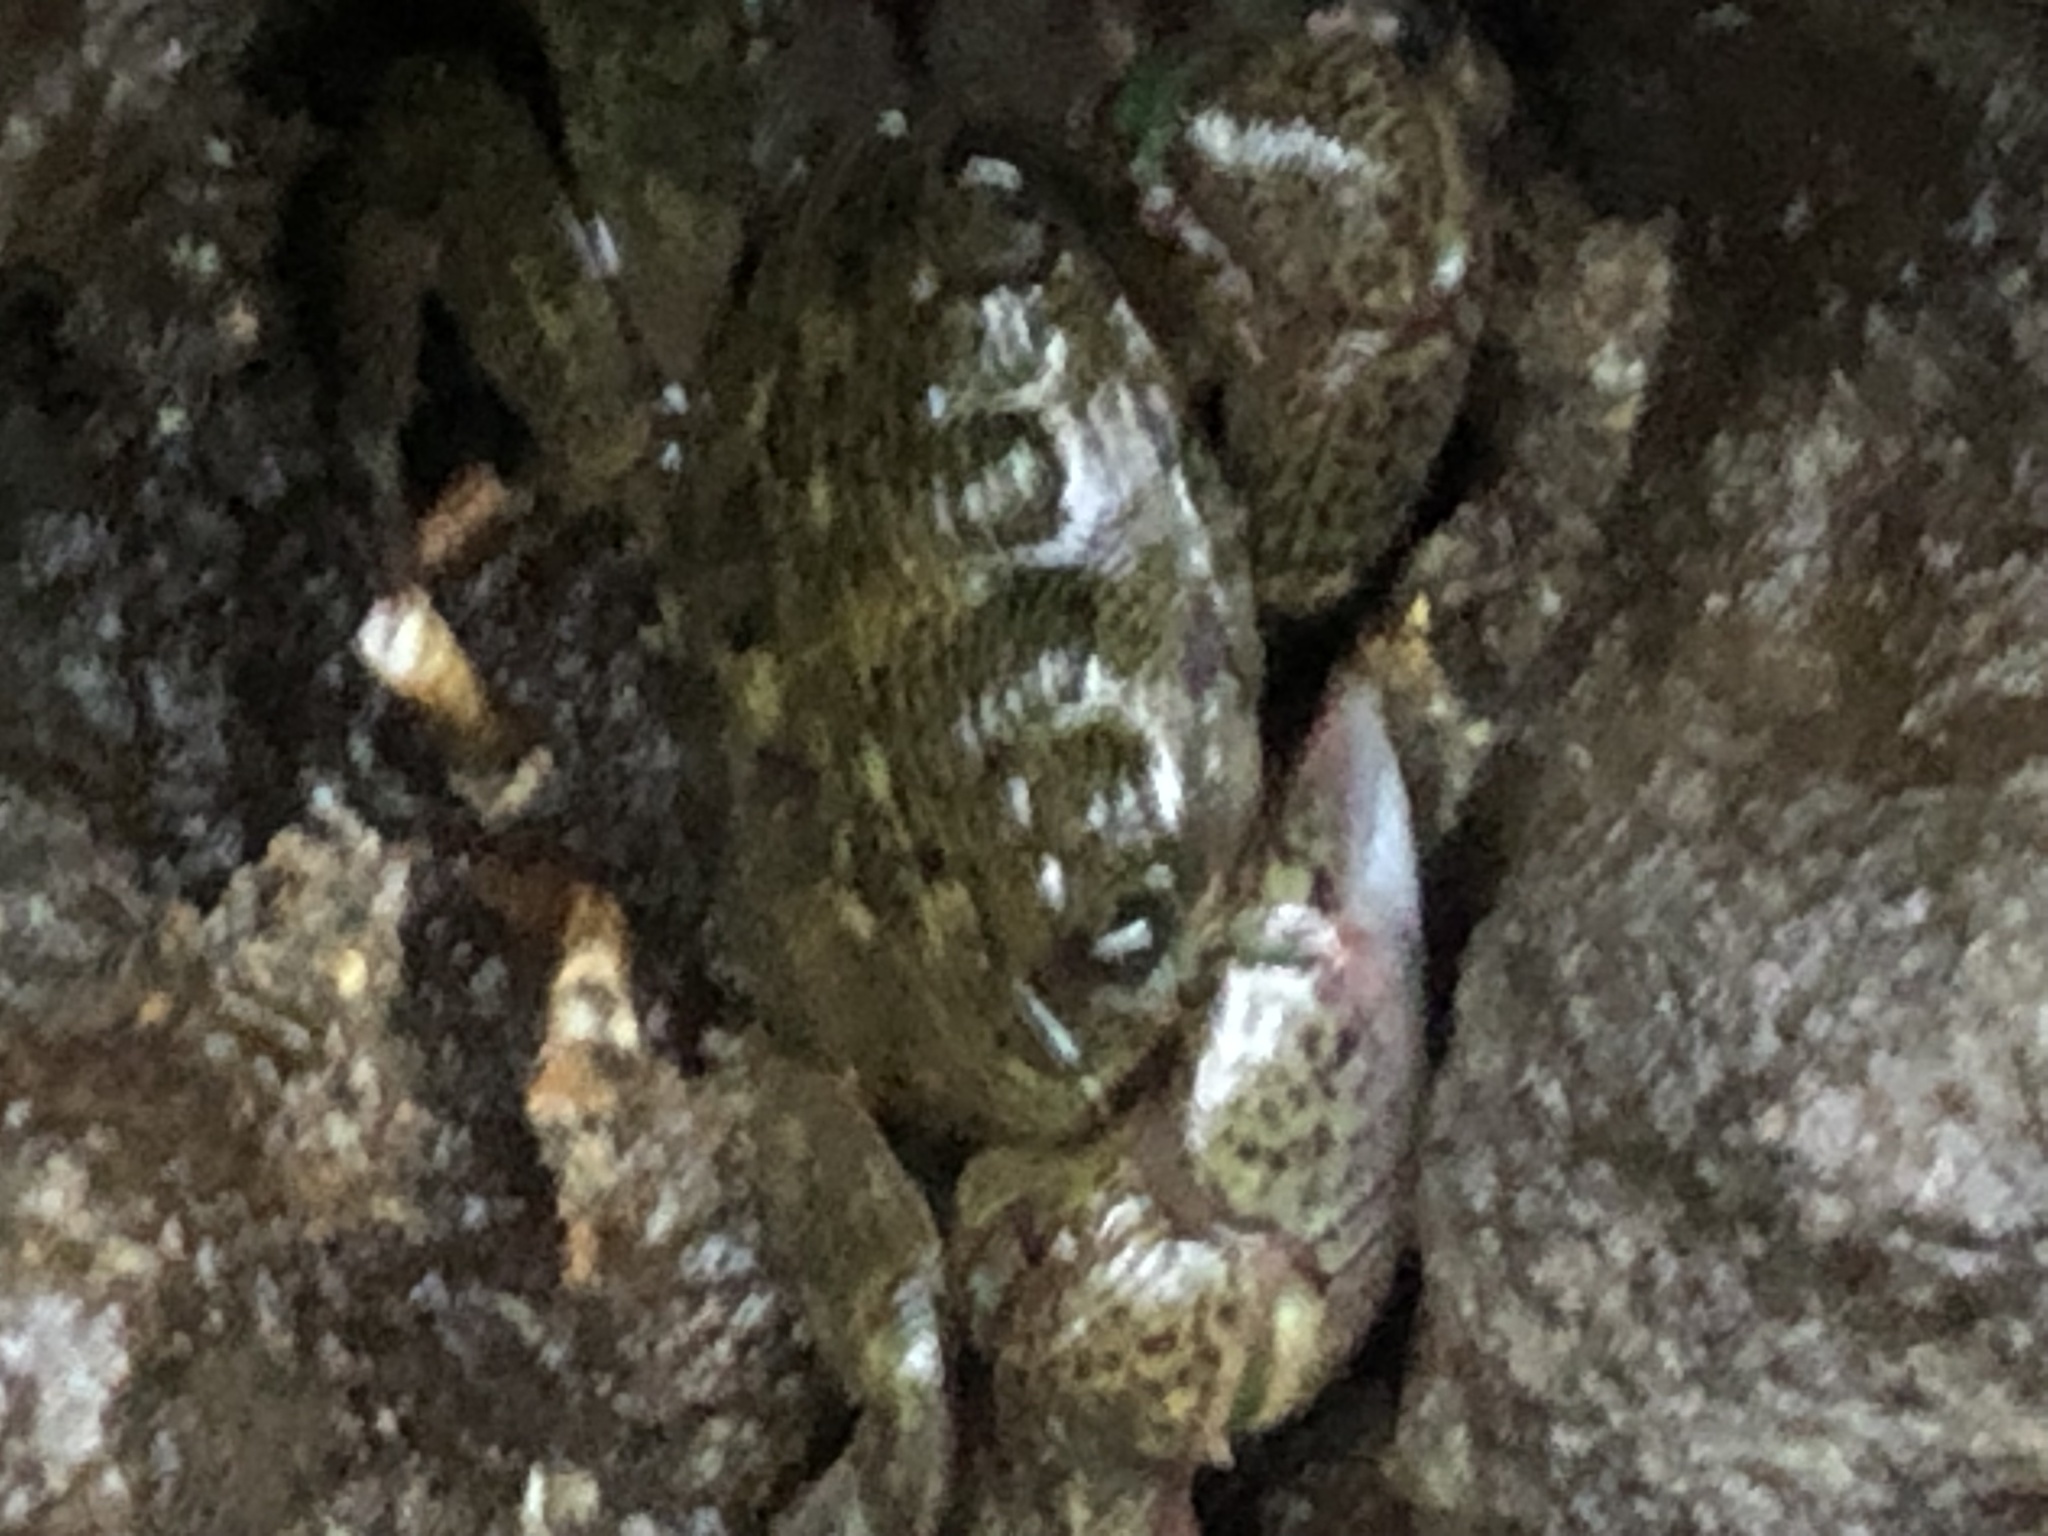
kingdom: Animalia
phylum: Arthropoda
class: Malacostraca
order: Decapoda
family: Grapsidae
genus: Pachygrapsus
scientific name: Pachygrapsus crassipes
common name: Striped shore crab
